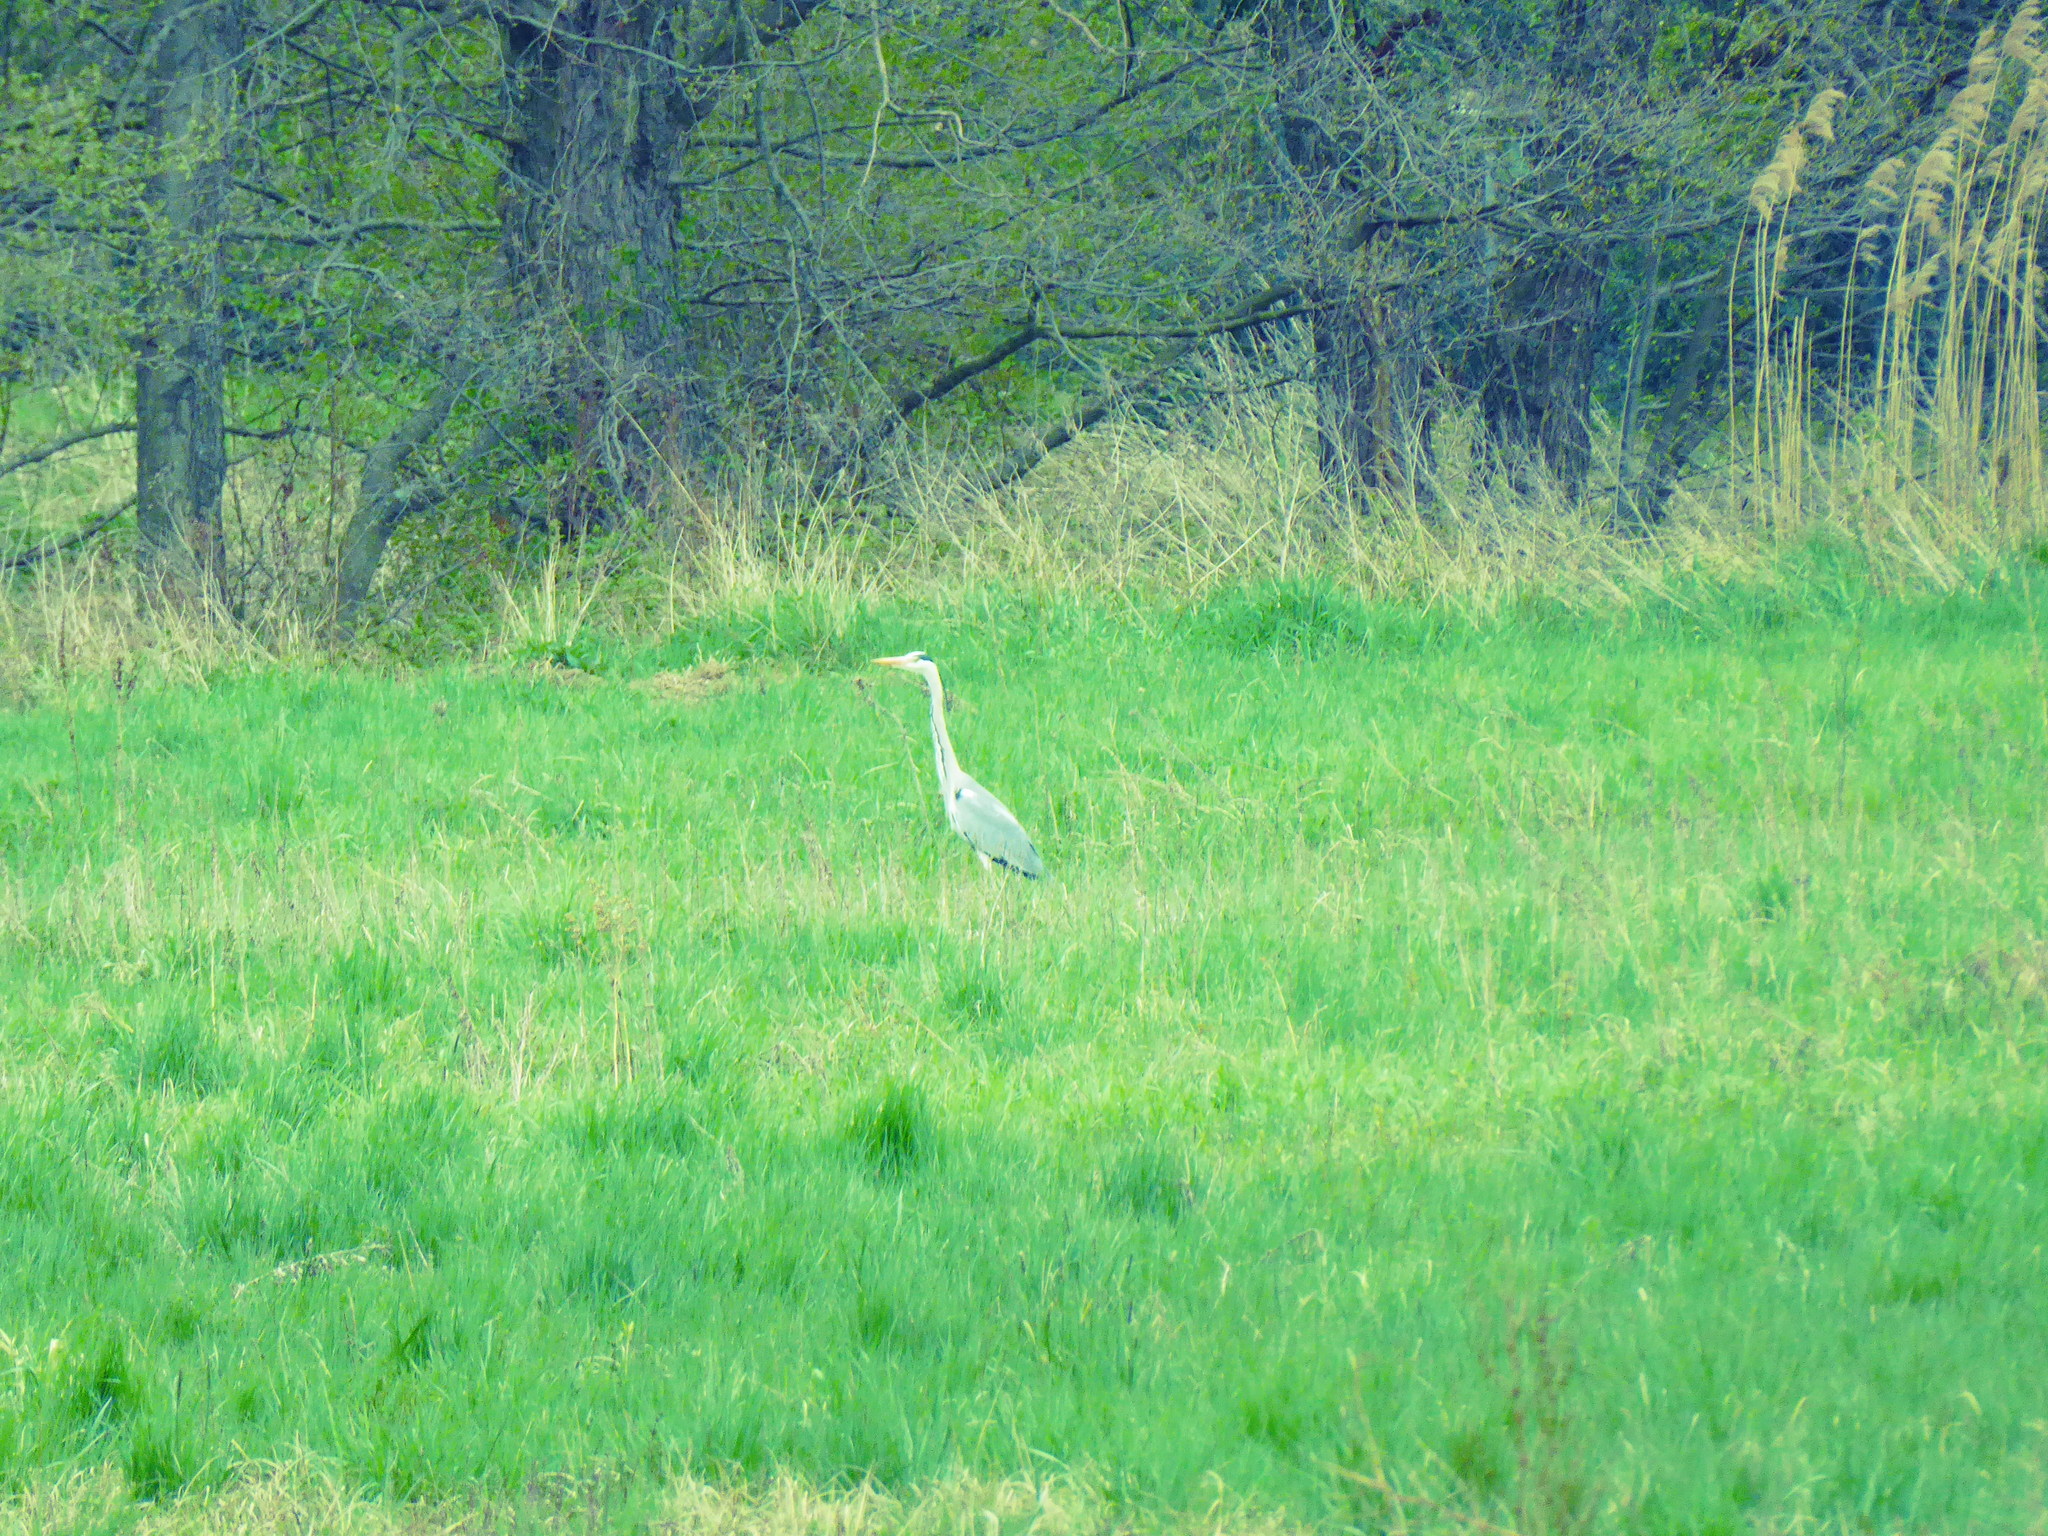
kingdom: Animalia
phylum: Chordata
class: Aves
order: Pelecaniformes
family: Ardeidae
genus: Ardea
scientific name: Ardea cinerea
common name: Grey heron
